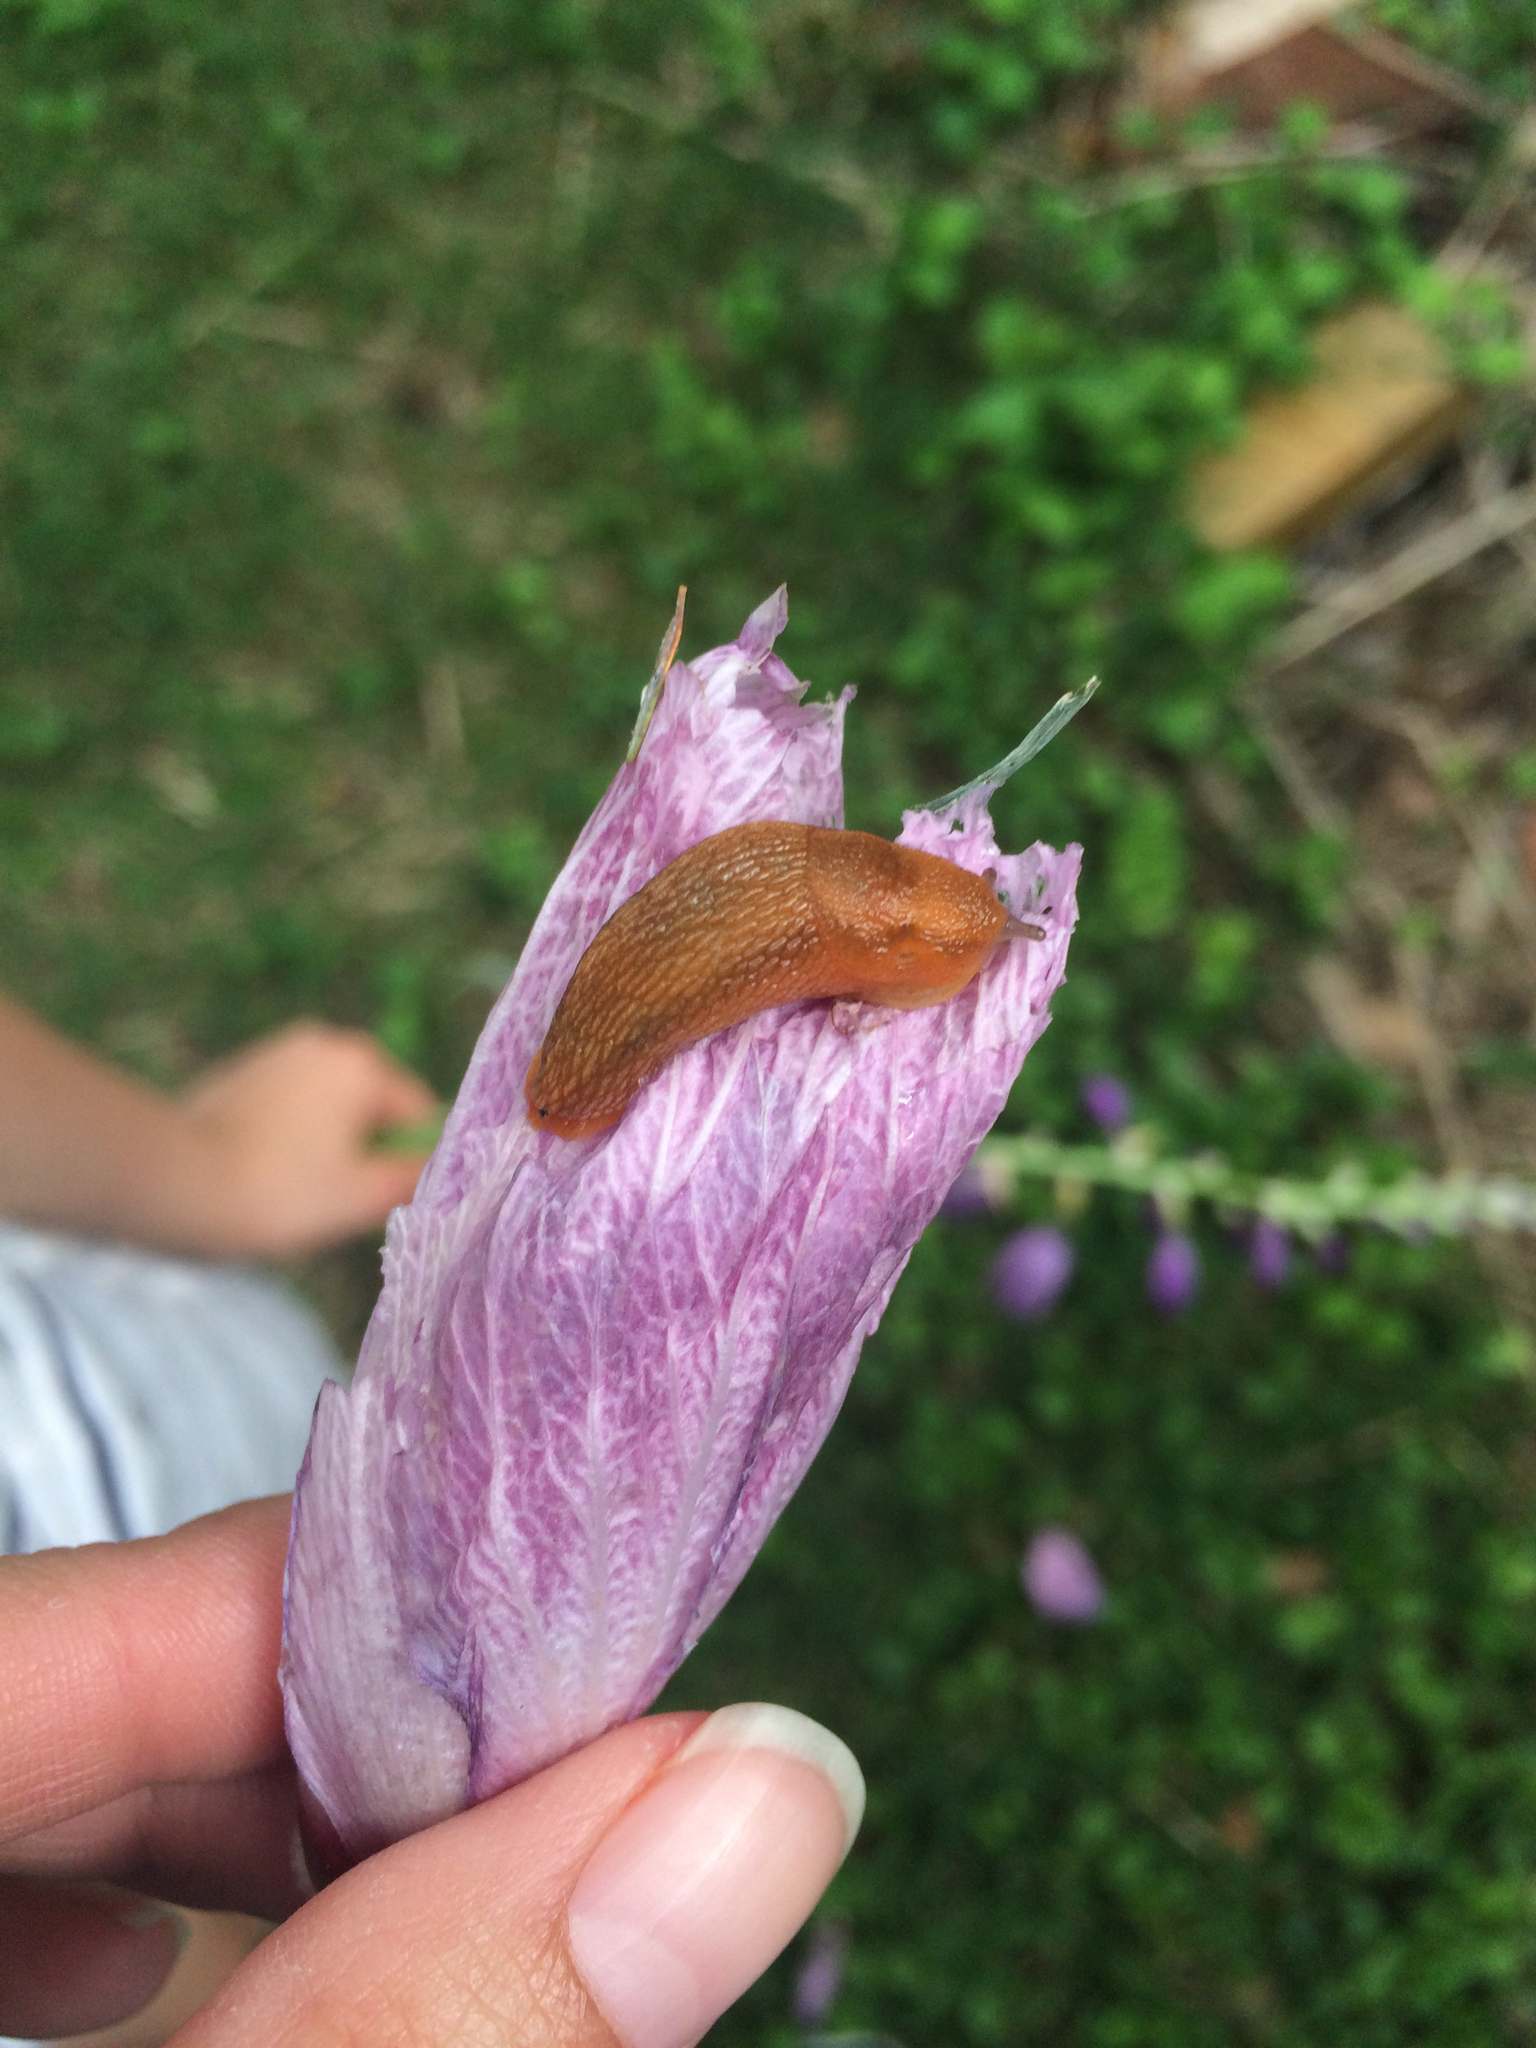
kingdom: Animalia
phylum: Mollusca
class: Gastropoda
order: Stylommatophora
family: Arionidae
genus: Arion
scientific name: Arion subfuscus
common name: Dusky arion
